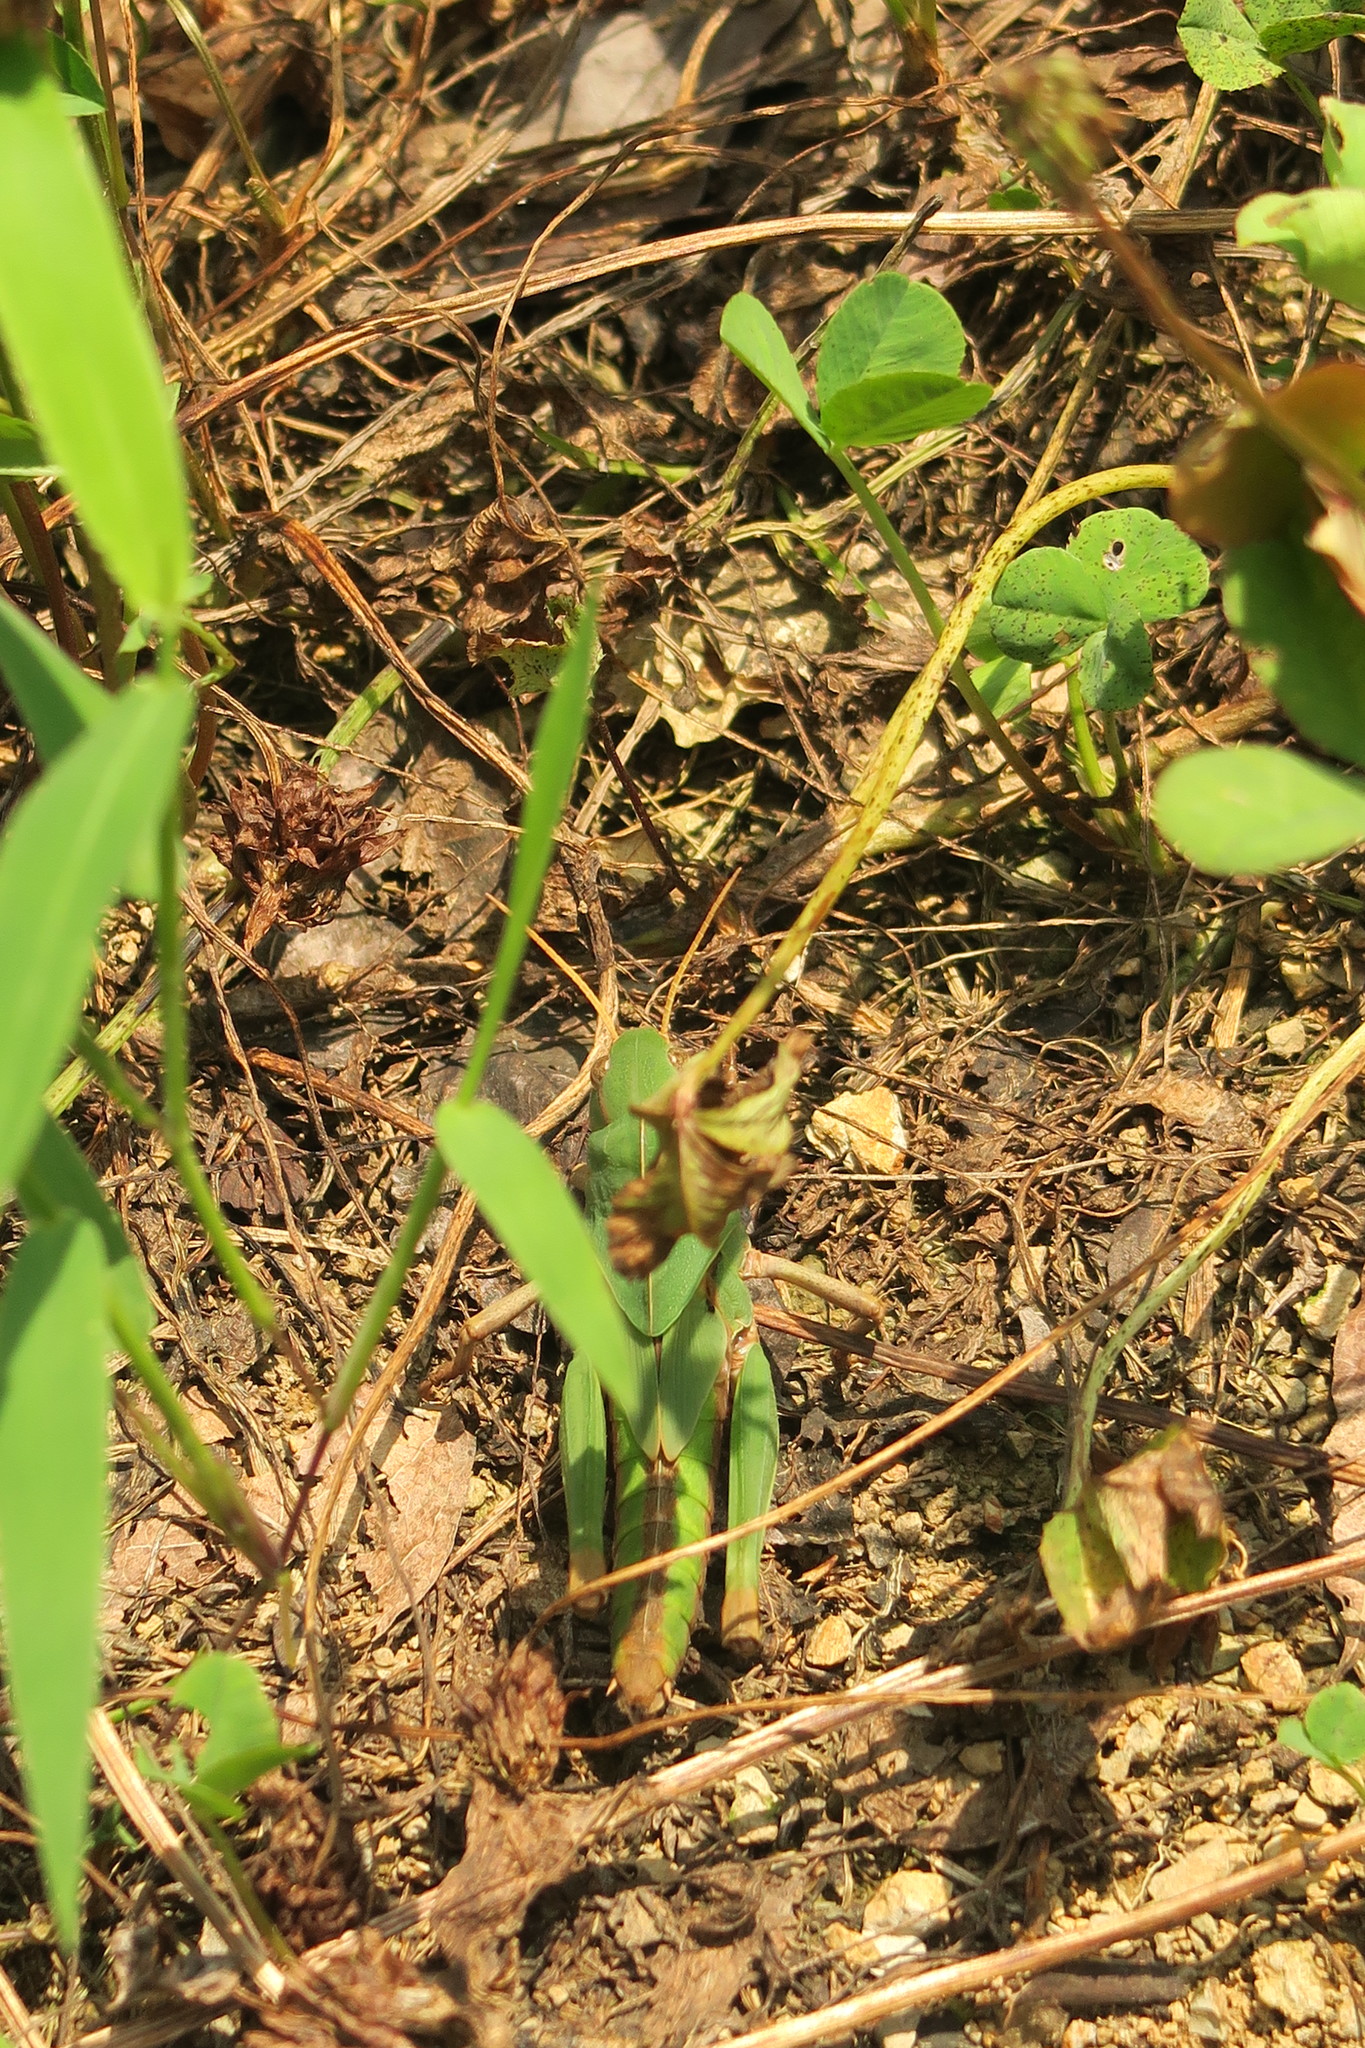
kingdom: Animalia
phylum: Arthropoda
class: Insecta
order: Orthoptera
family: Acrididae
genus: Gastrimargus
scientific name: Gastrimargus marmoratus
